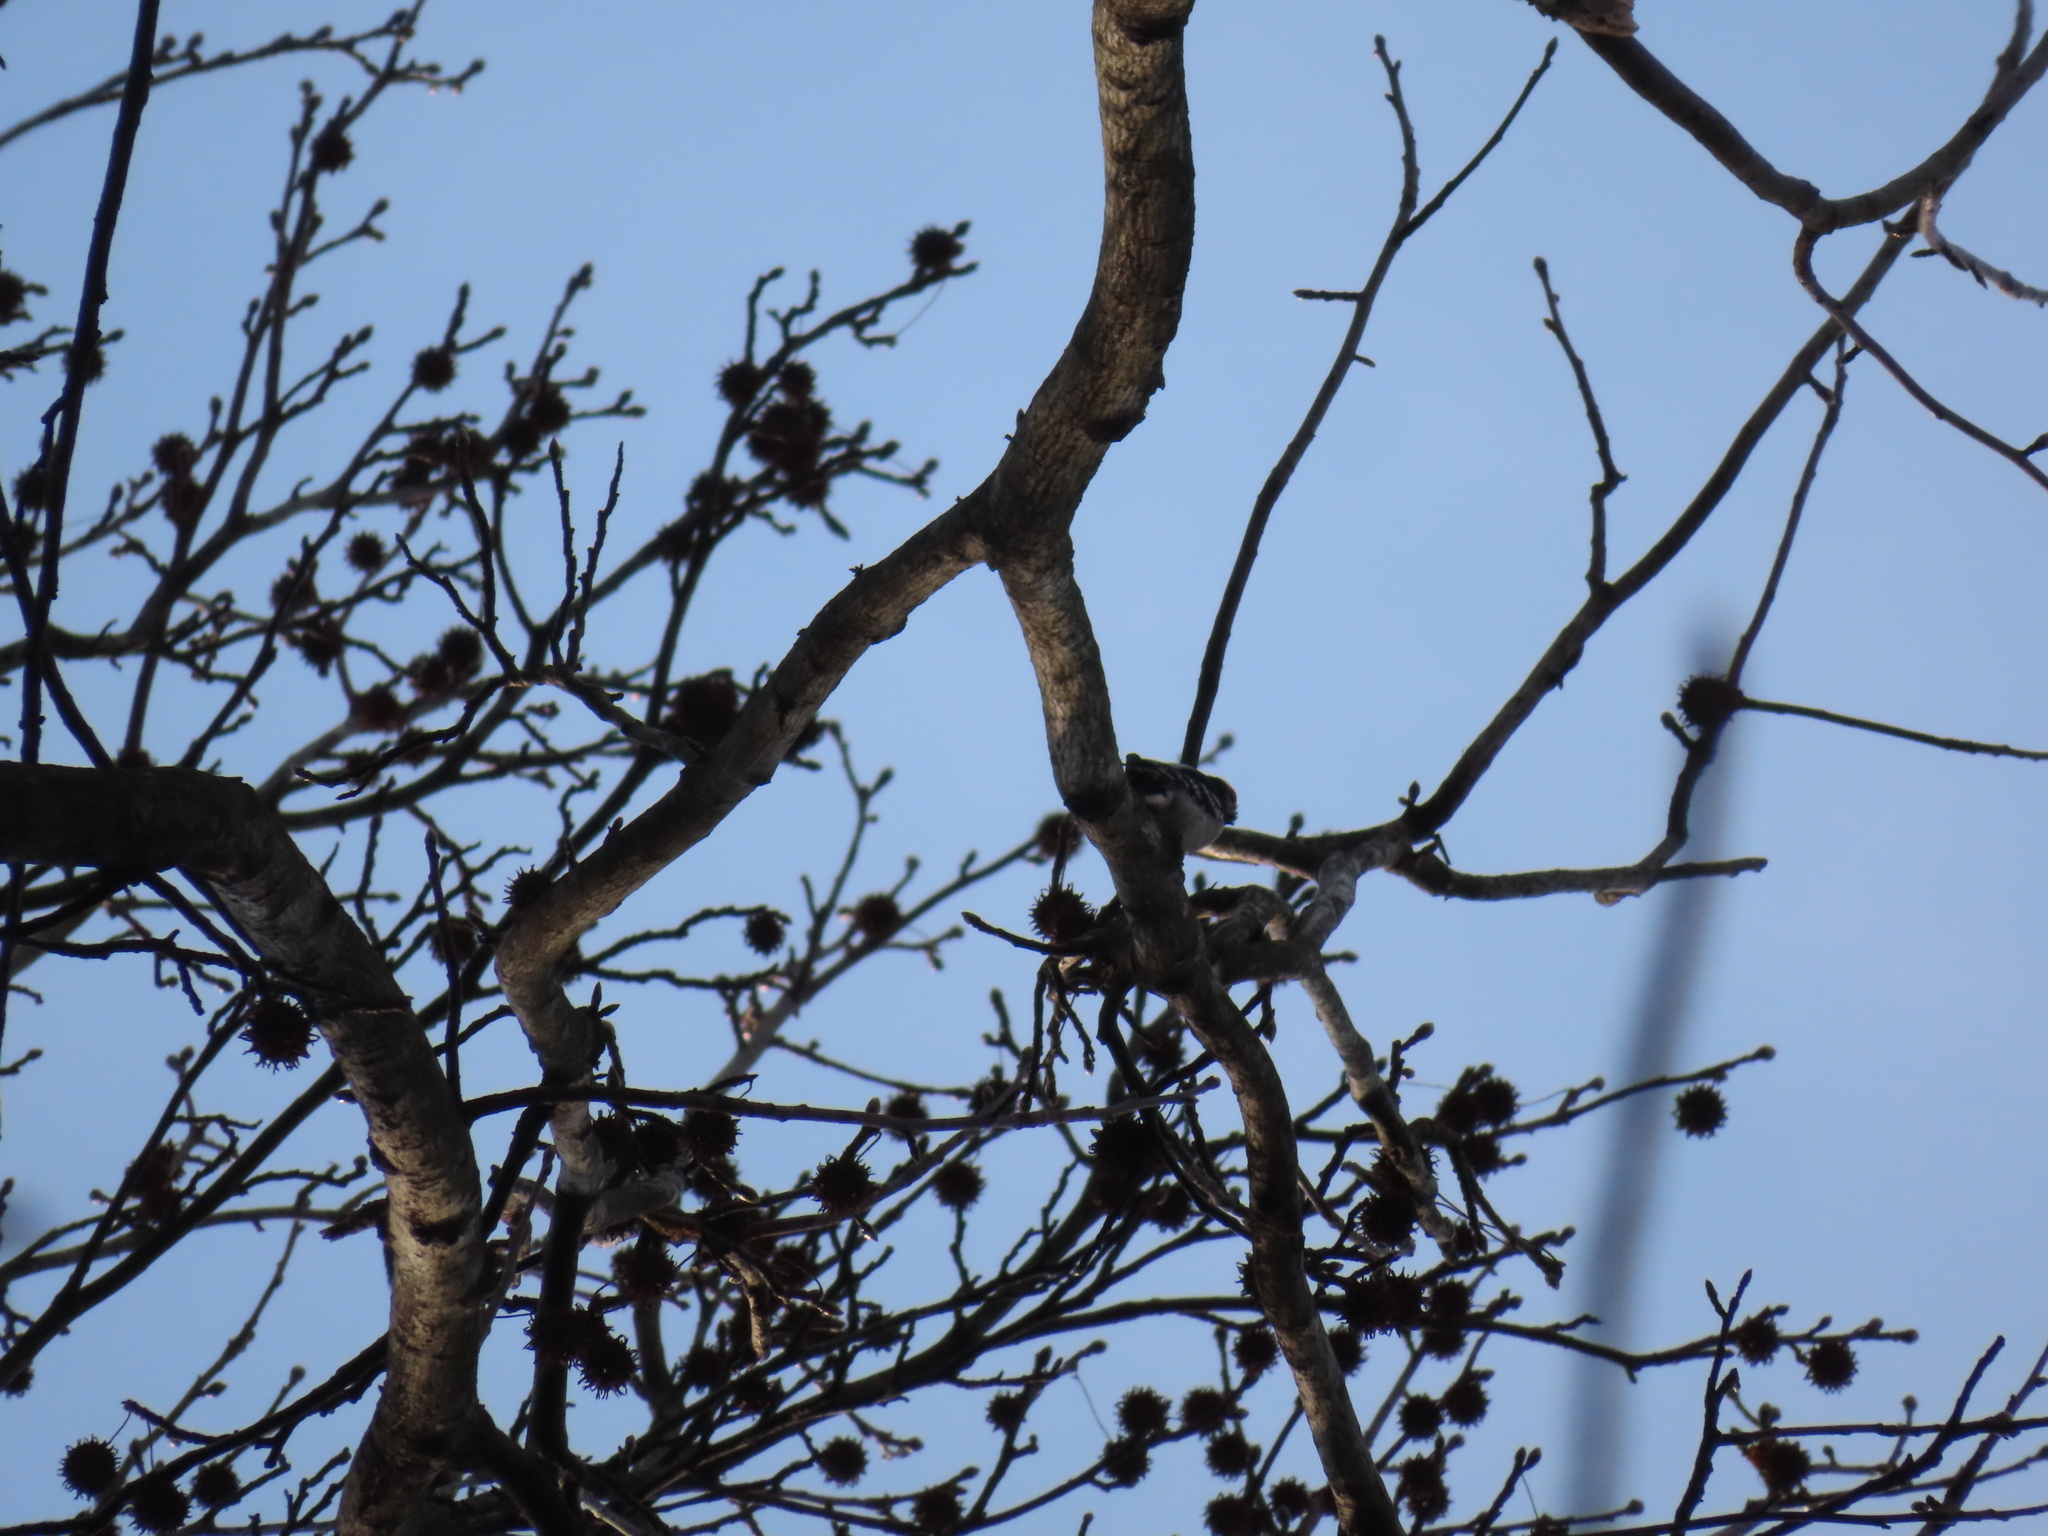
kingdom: Animalia
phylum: Chordata
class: Aves
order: Piciformes
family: Picidae
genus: Dryobates
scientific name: Dryobates pubescens
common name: Downy woodpecker
